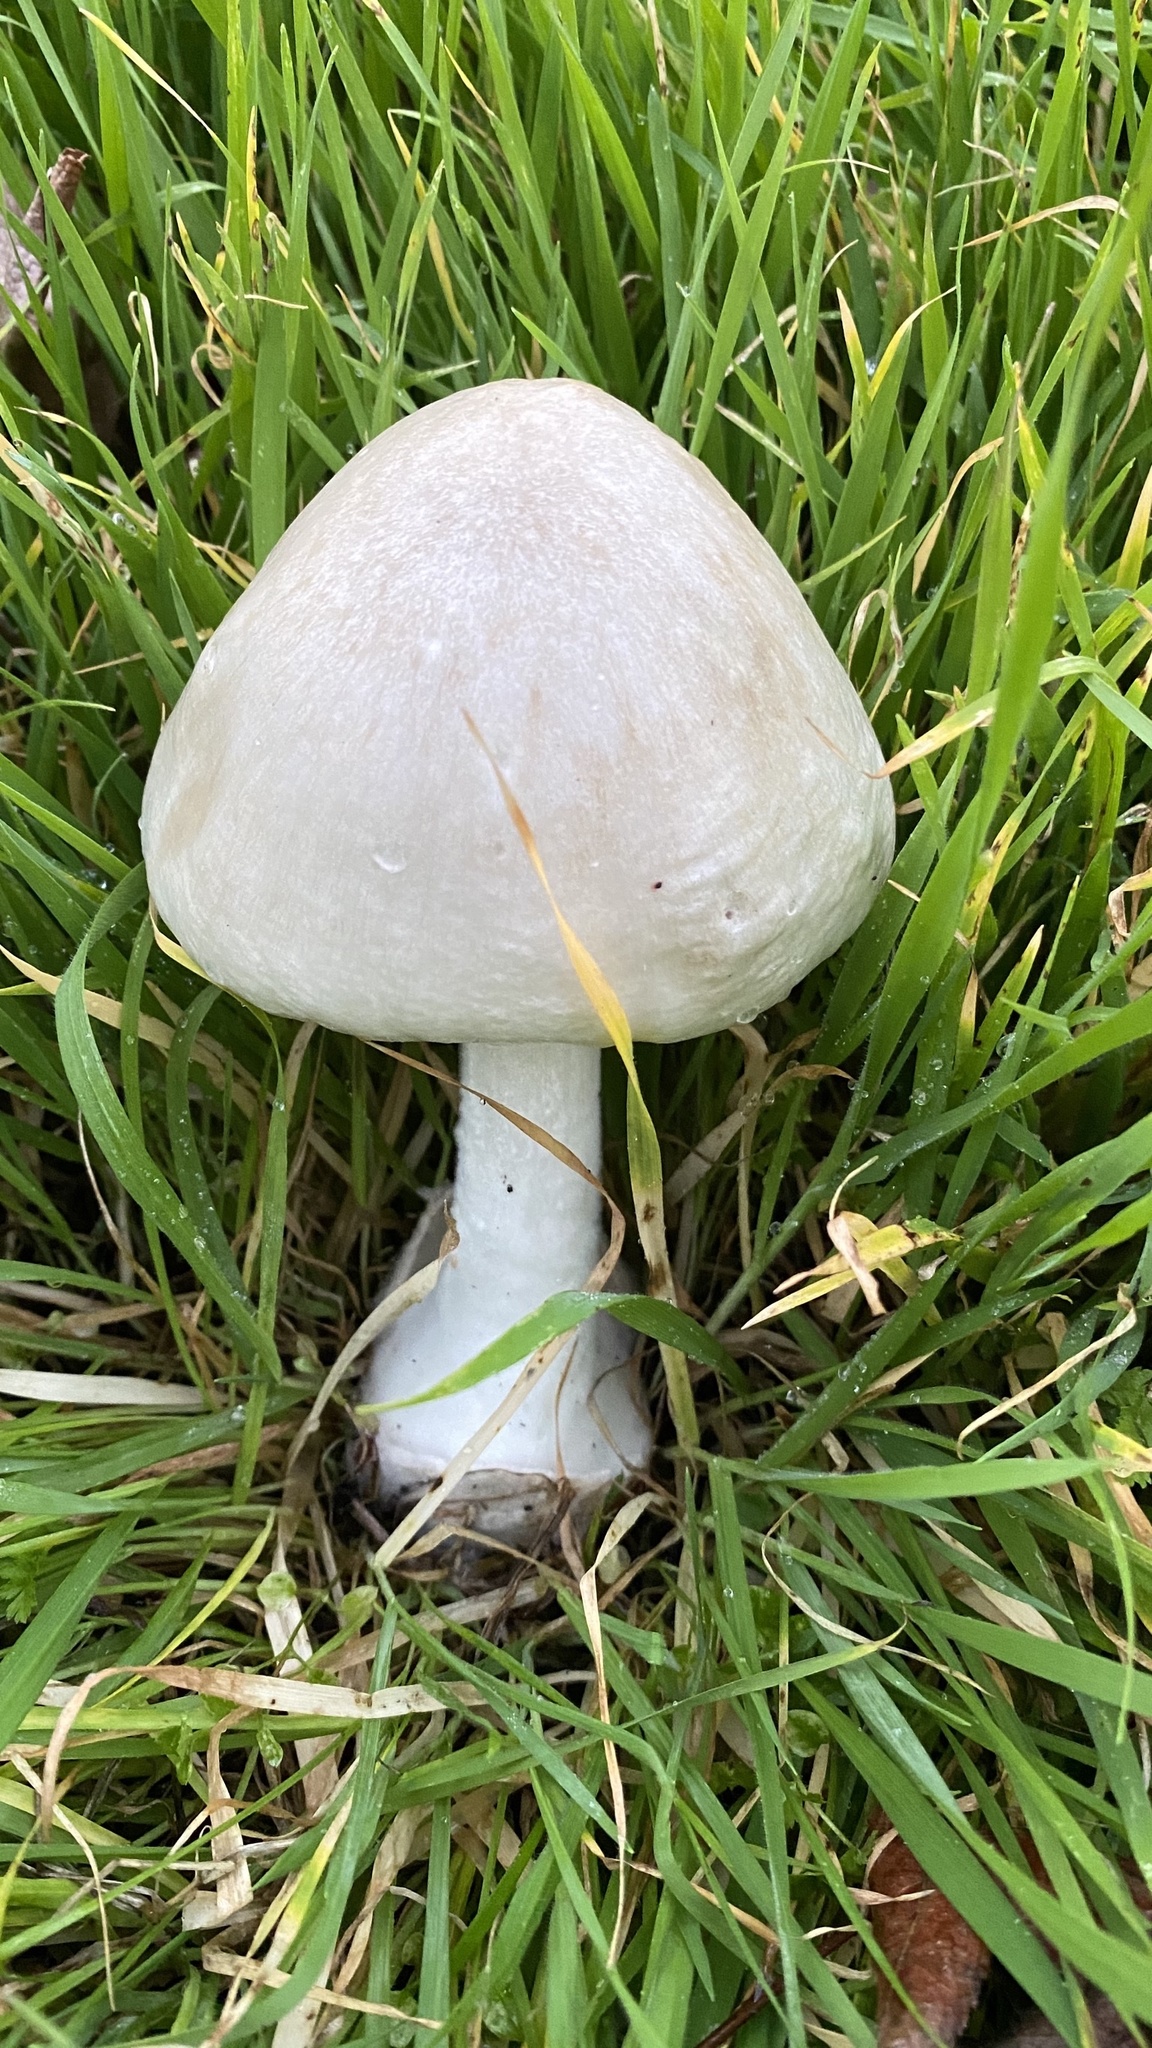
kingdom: Fungi
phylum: Basidiomycota
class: Agaricomycetes
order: Agaricales
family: Pluteaceae
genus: Volvopluteus
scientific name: Volvopluteus gloiocephalus
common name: Stubble rosegill
